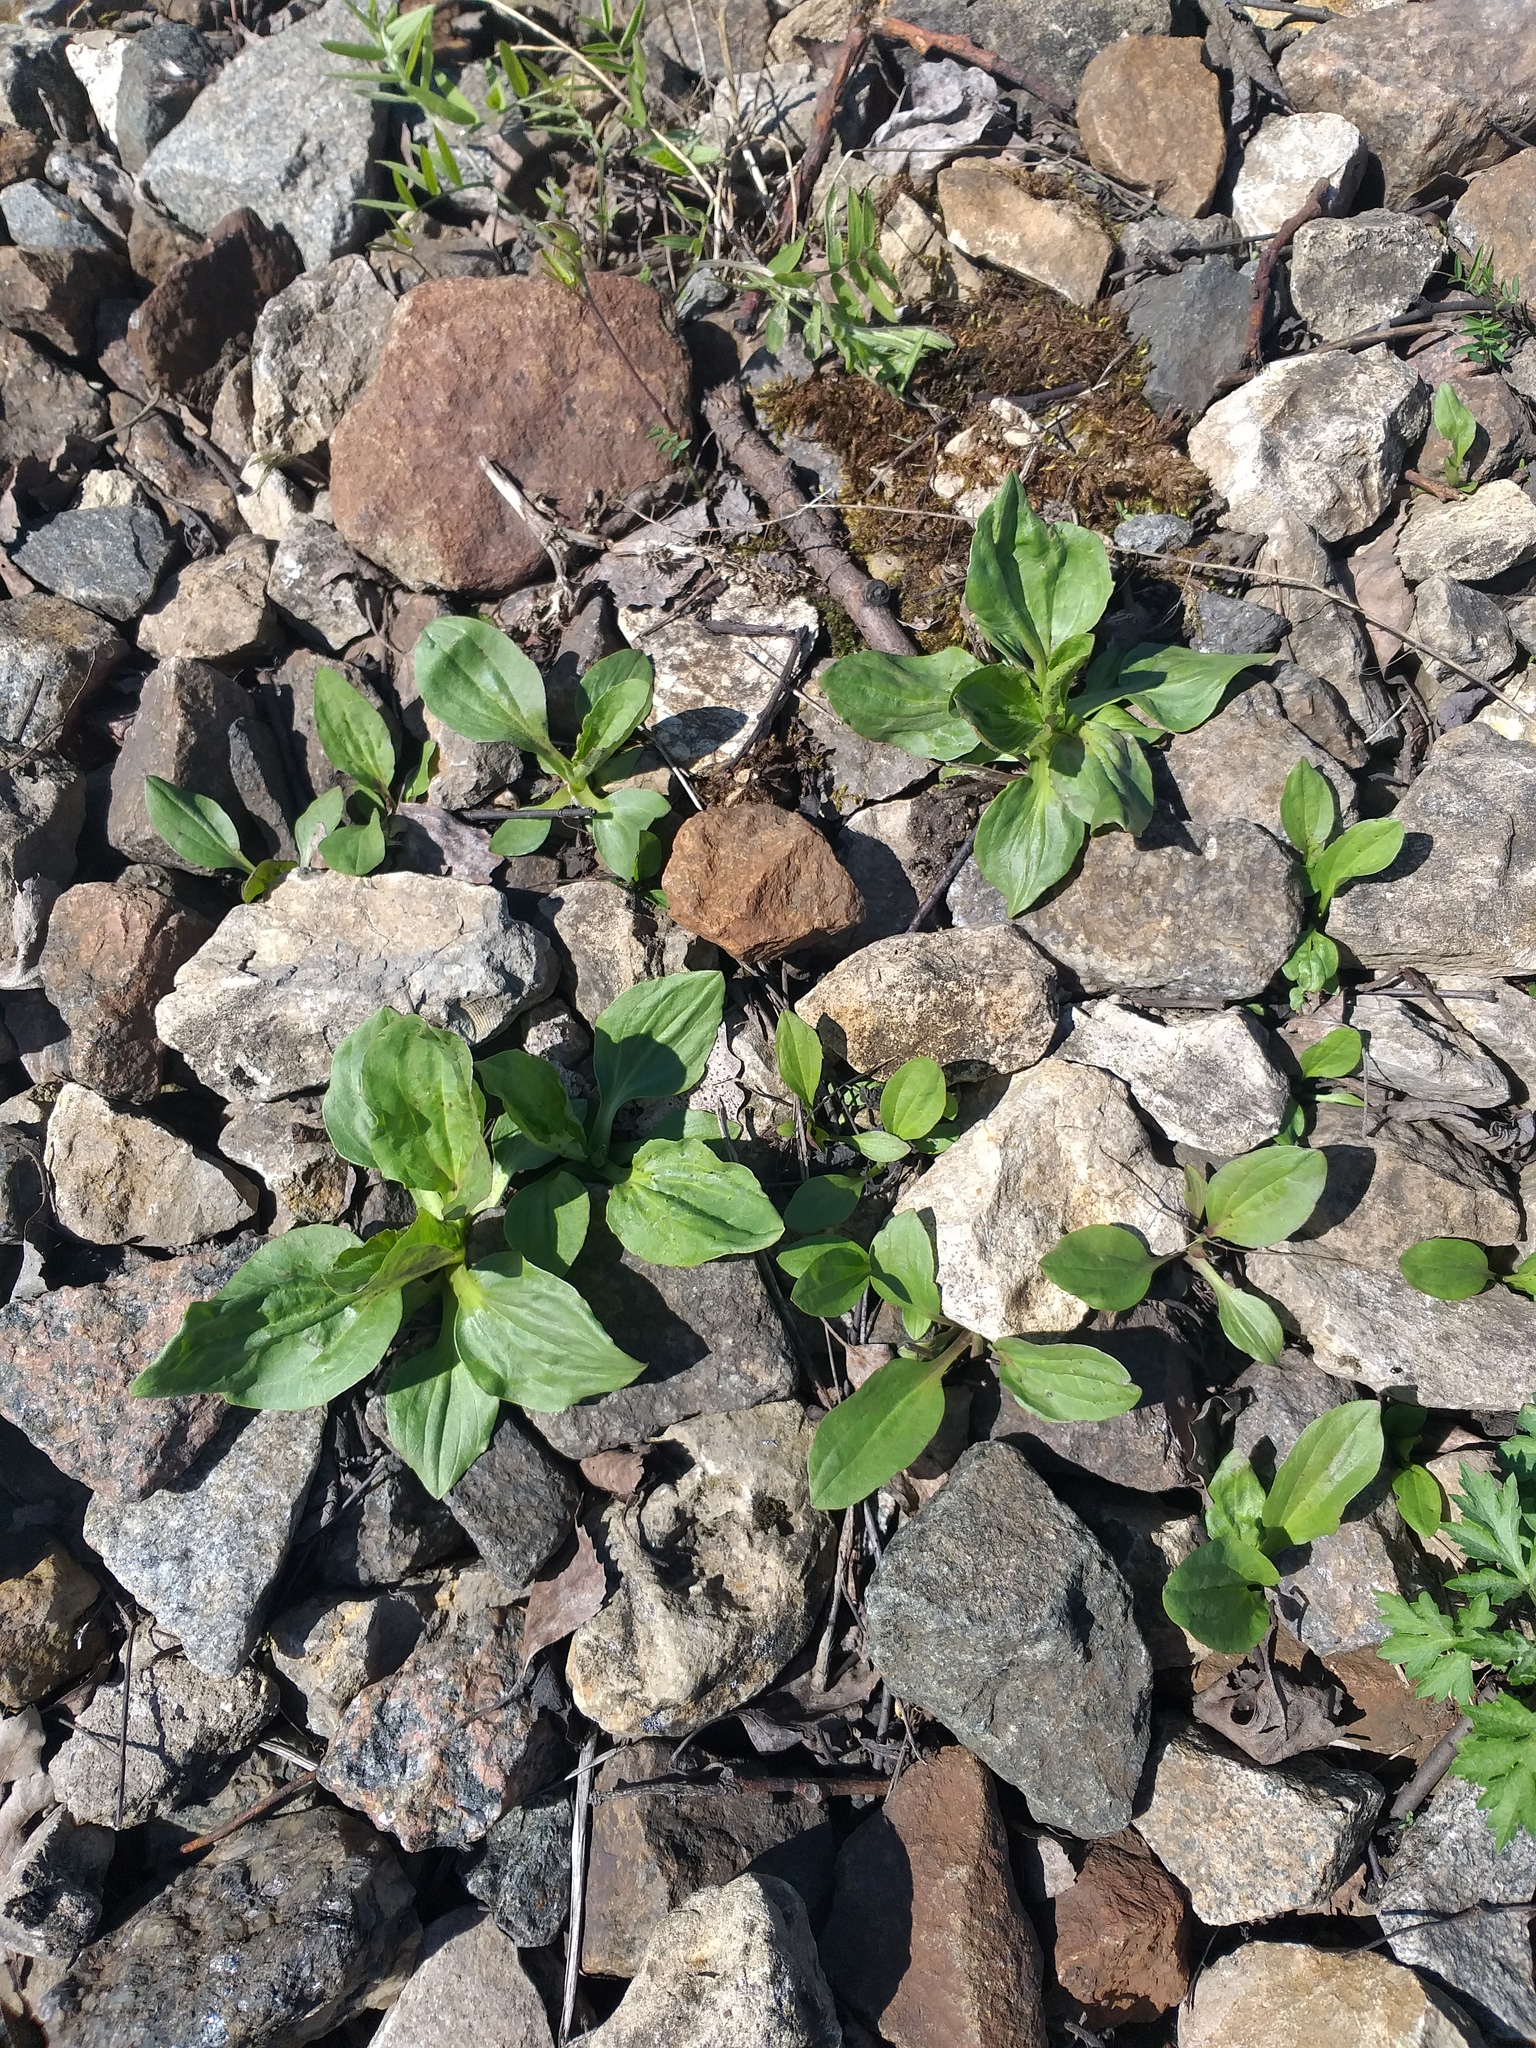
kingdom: Plantae
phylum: Tracheophyta
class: Magnoliopsida
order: Lamiales
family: Plantaginaceae
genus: Plantago
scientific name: Plantago major
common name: Common plantain
